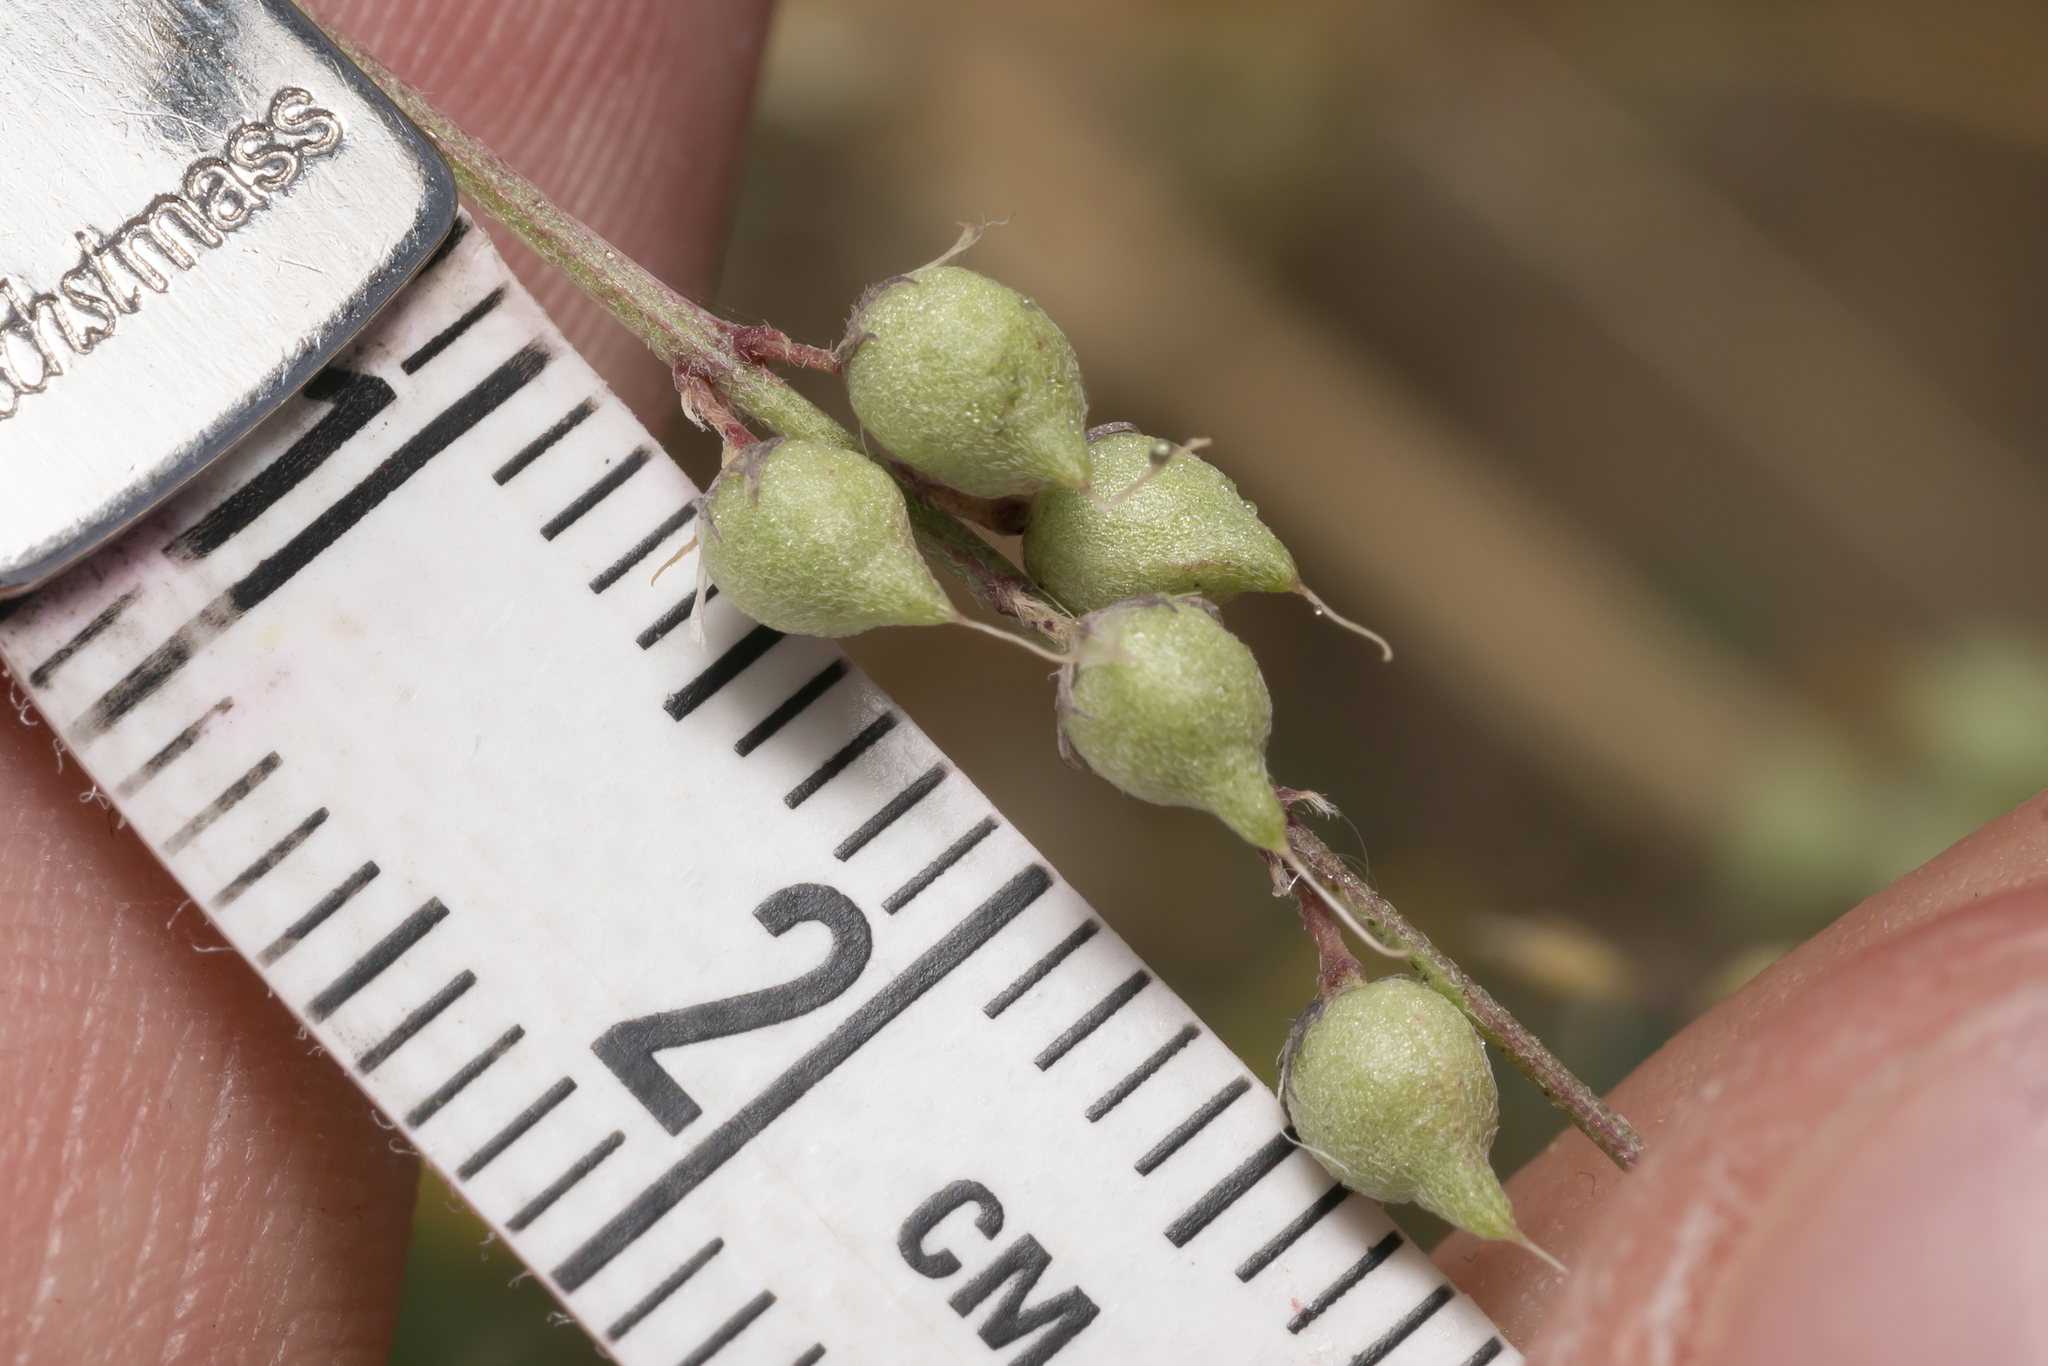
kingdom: Plantae
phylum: Tracheophyta
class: Magnoliopsida
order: Fabales
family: Fabaceae
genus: Melilotus
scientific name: Melilotus neapolitanus
